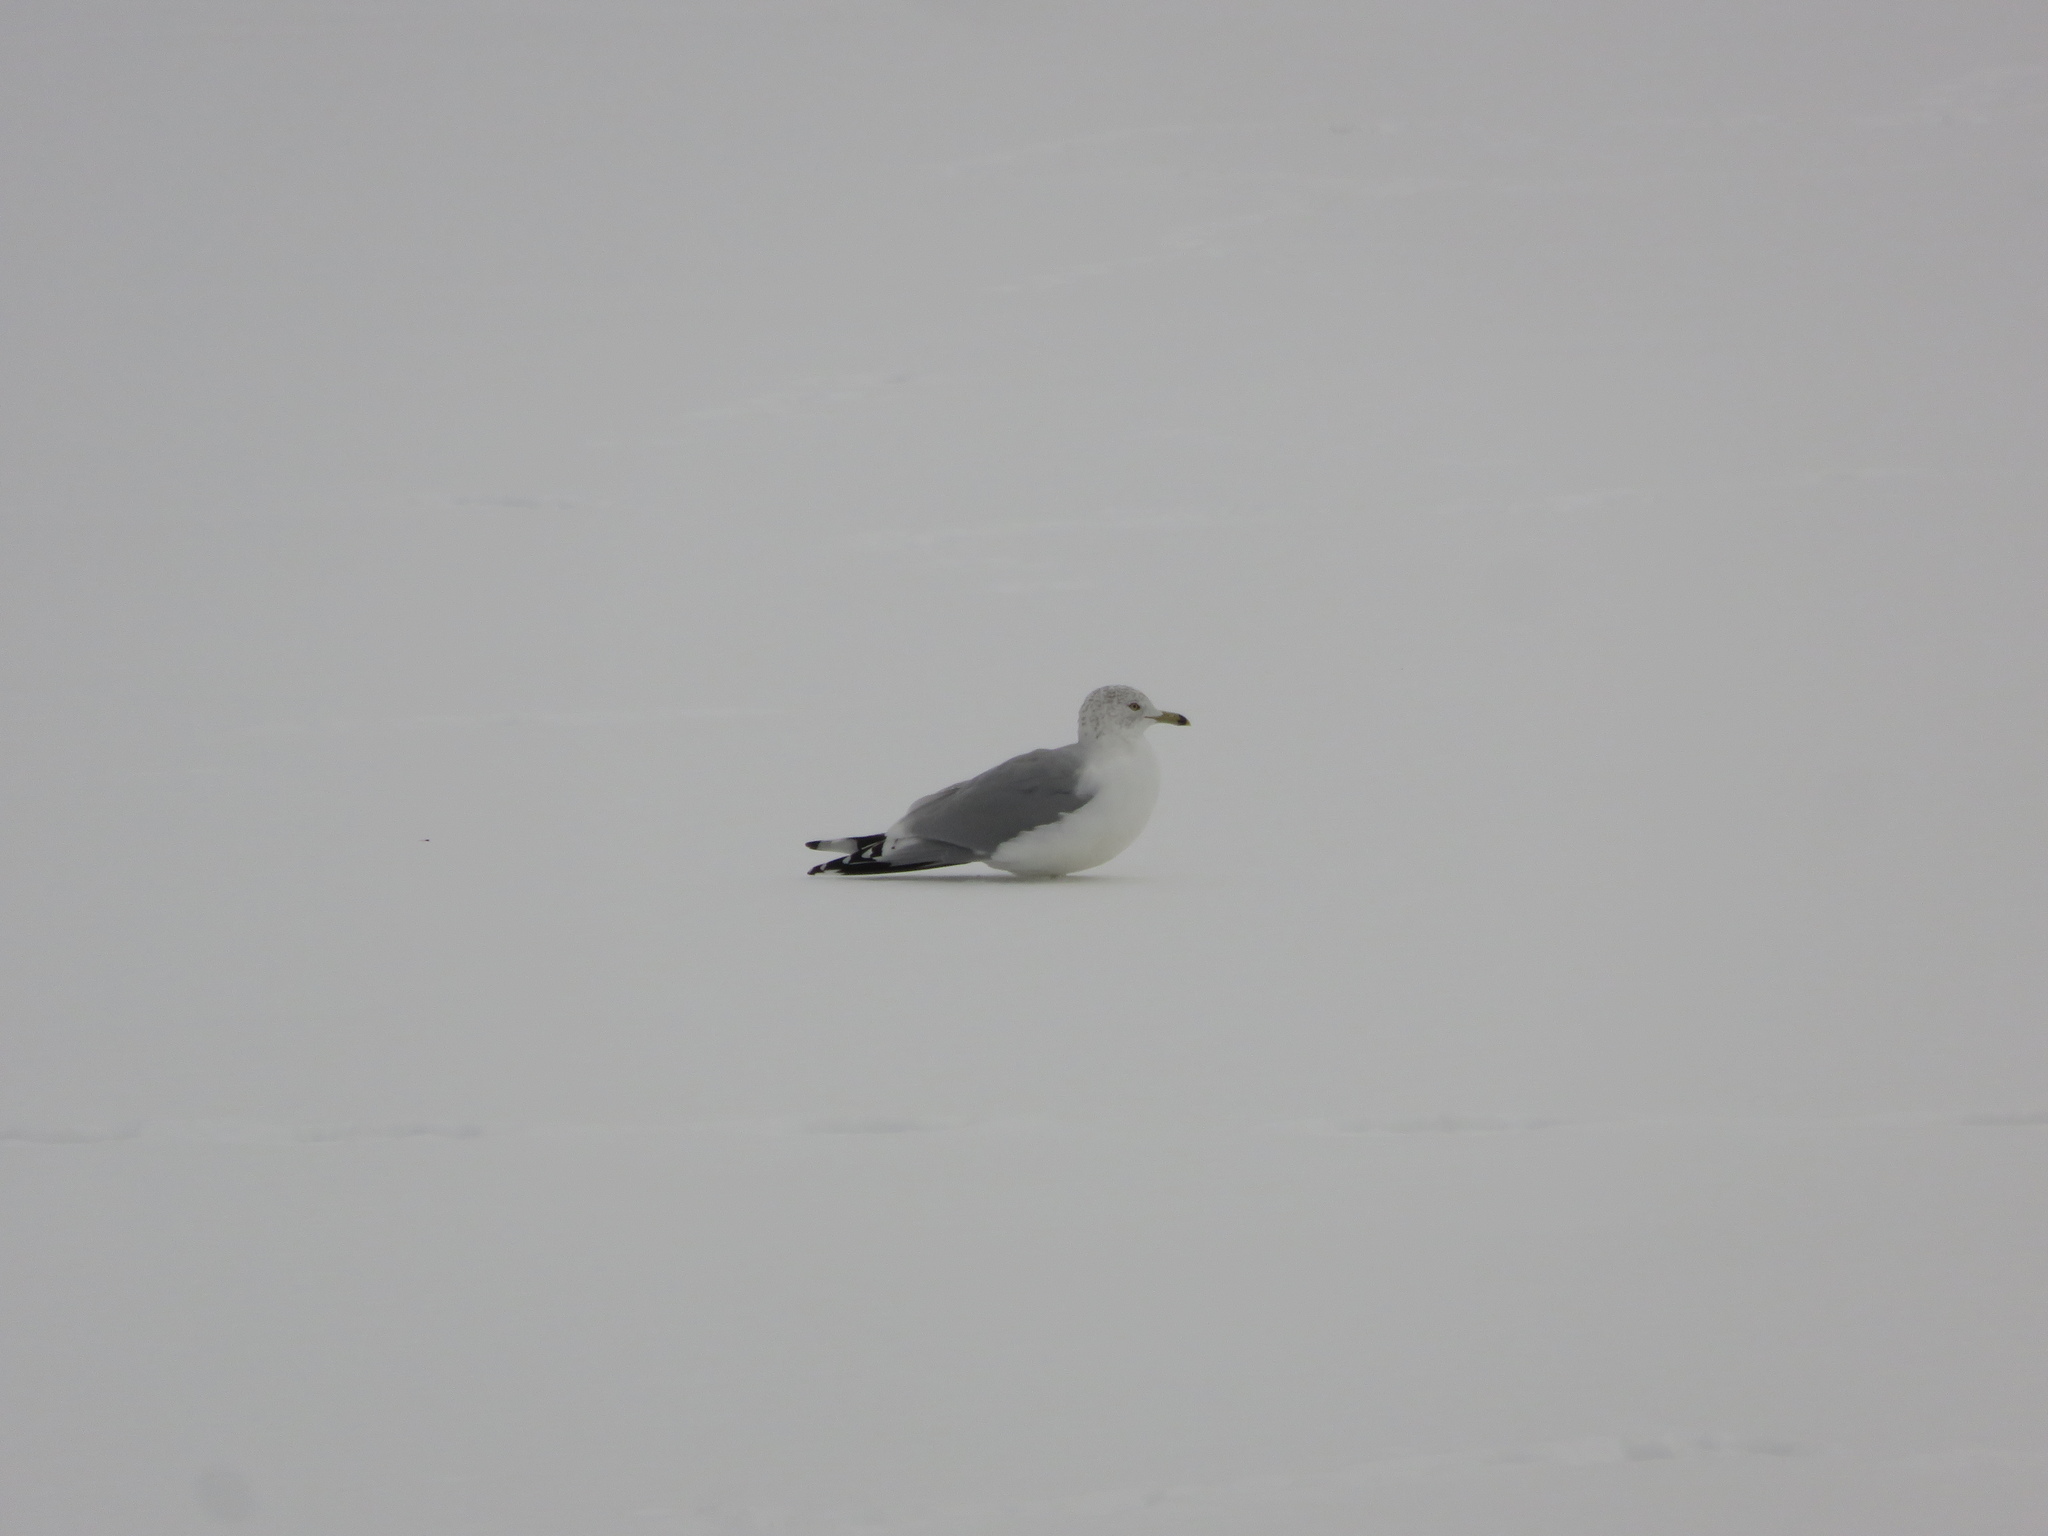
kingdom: Animalia
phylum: Chordata
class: Aves
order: Charadriiformes
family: Laridae
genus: Larus
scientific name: Larus delawarensis
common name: Ring-billed gull
